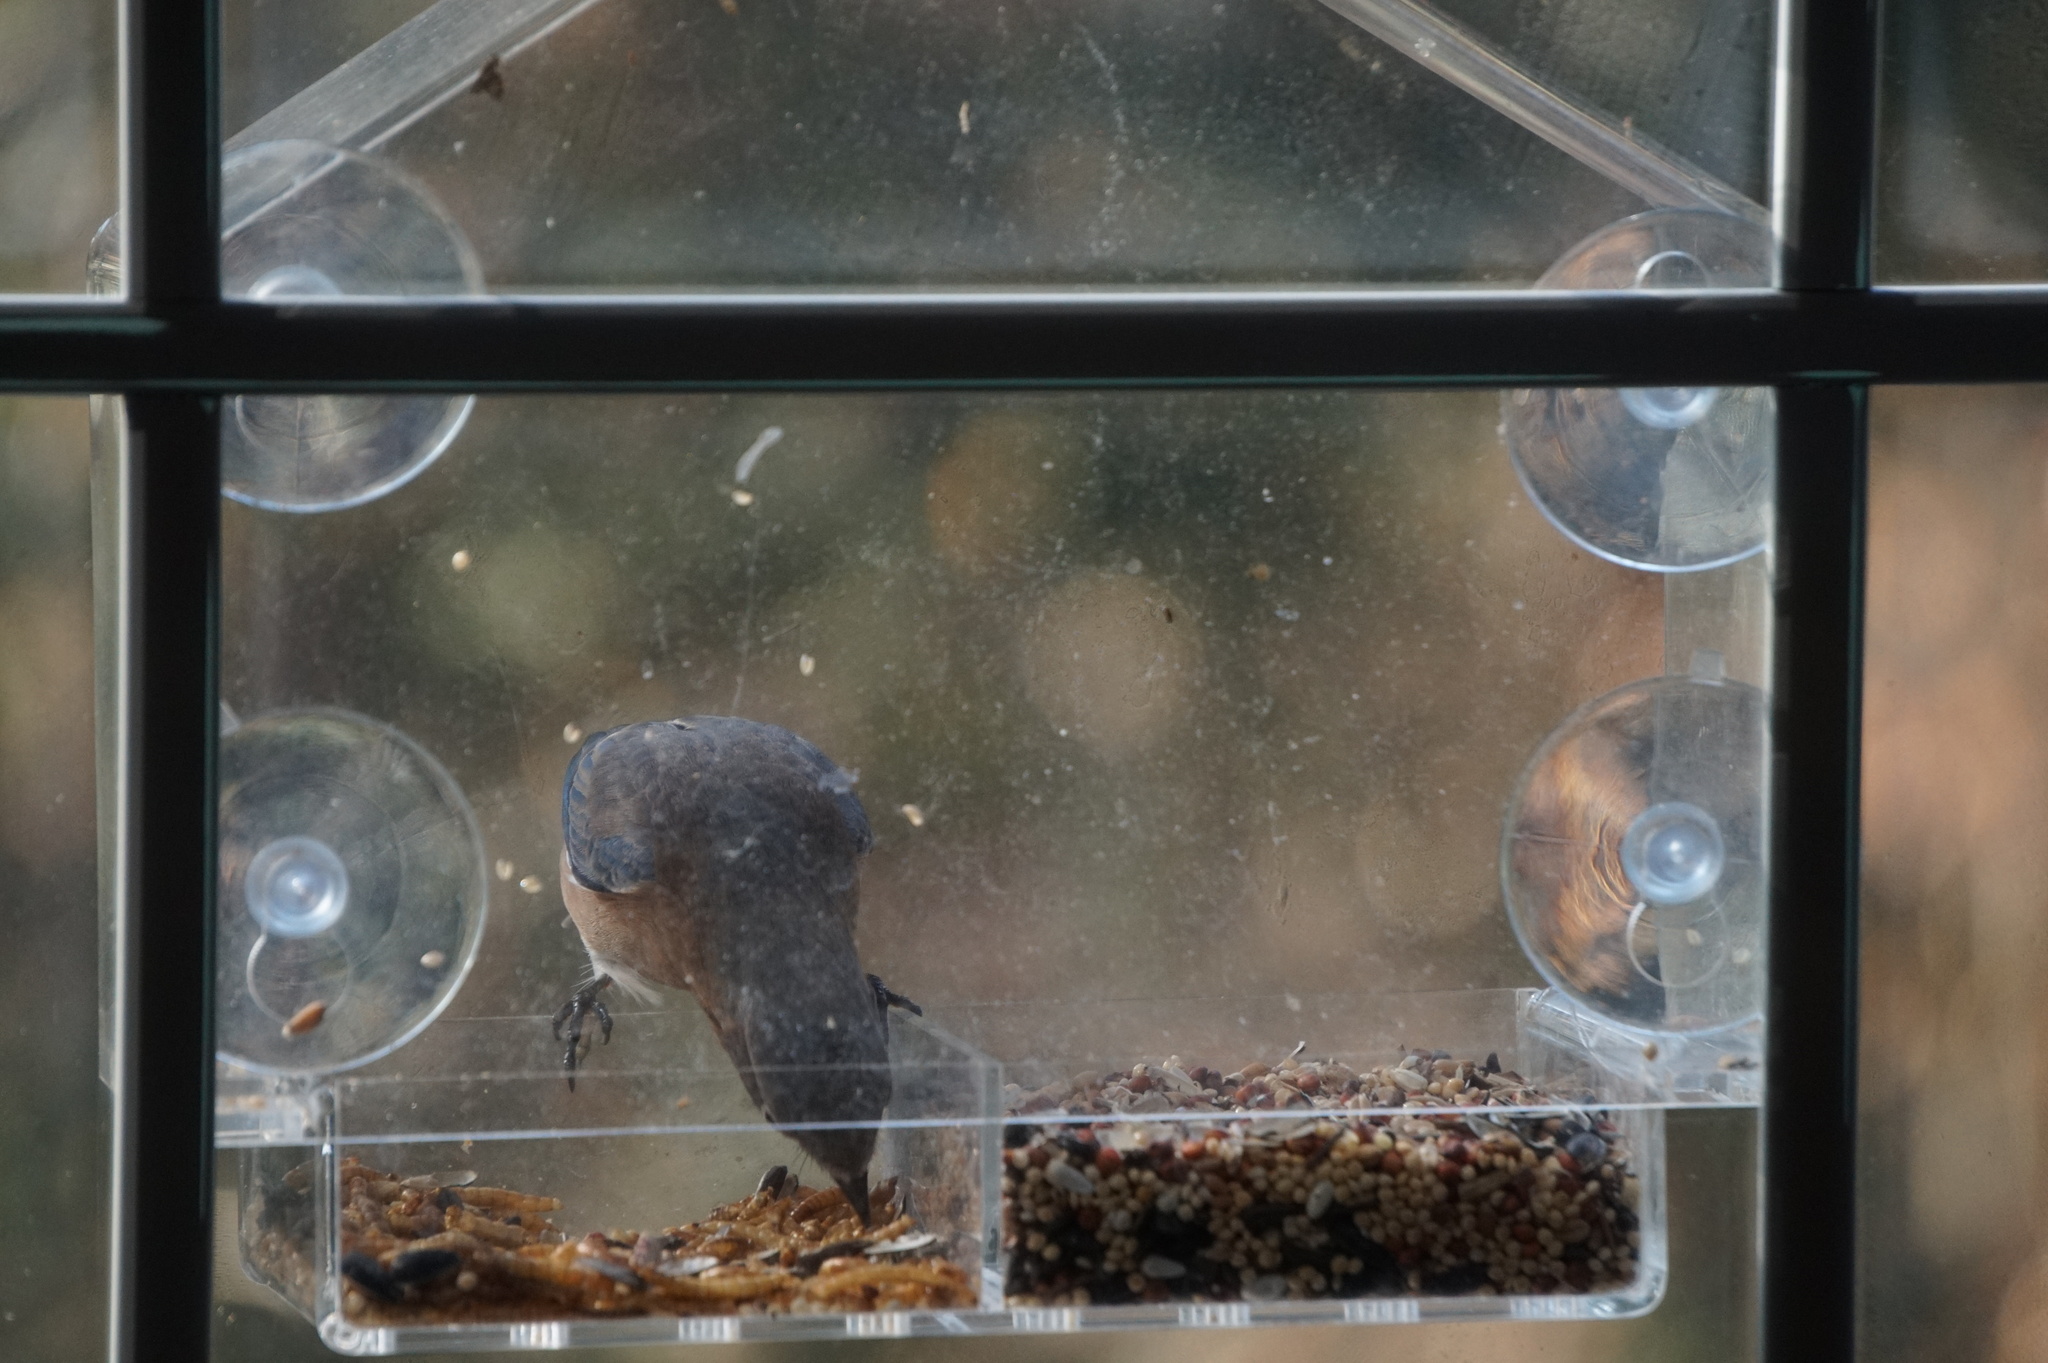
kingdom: Animalia
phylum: Chordata
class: Aves
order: Passeriformes
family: Turdidae
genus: Sialia
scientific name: Sialia sialis
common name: Eastern bluebird
